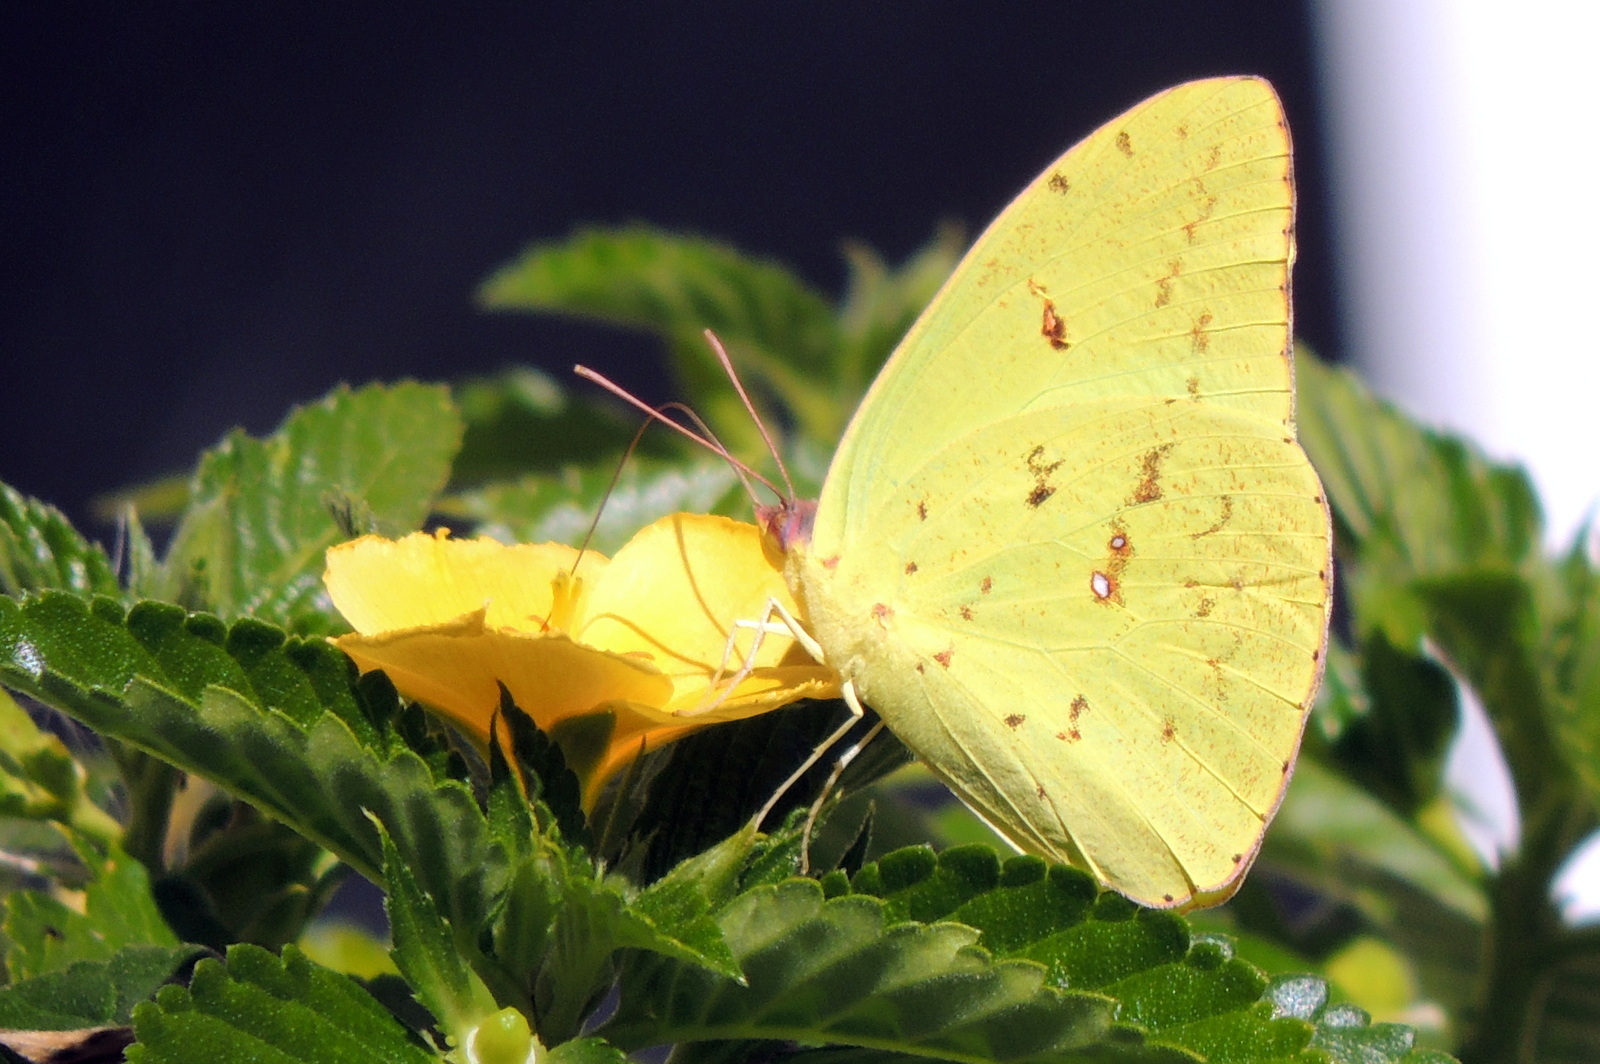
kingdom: Animalia
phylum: Arthropoda
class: Insecta
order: Lepidoptera
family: Pieridae
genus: Phoebis
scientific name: Phoebis sennae
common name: Cloudless sulphur
